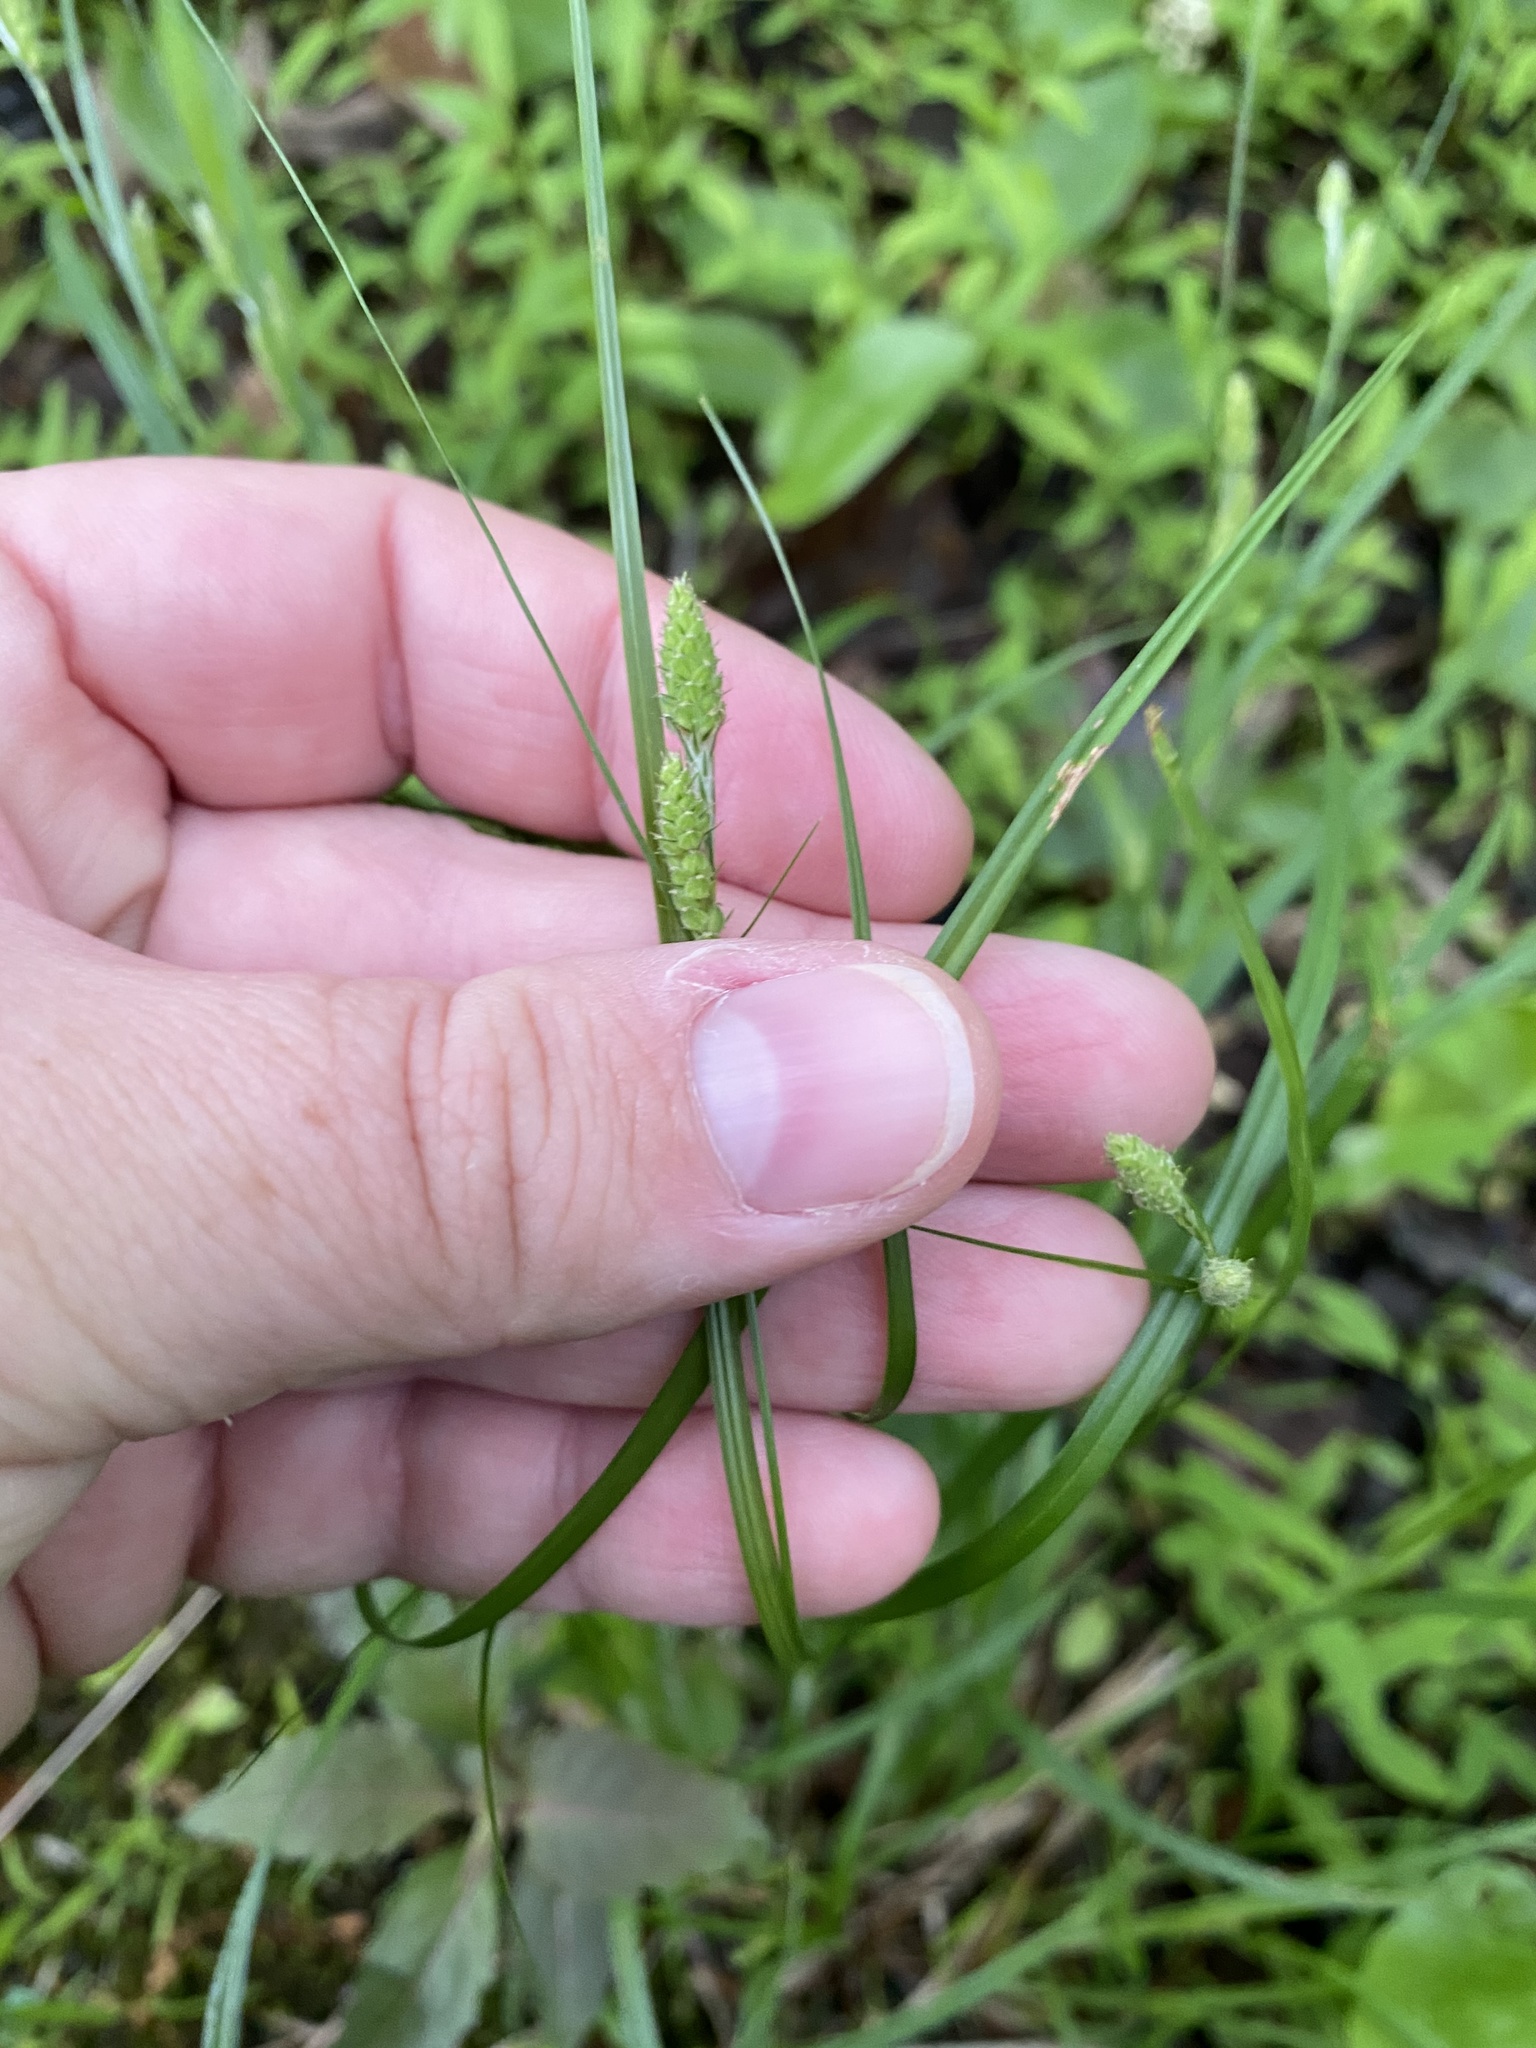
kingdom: Plantae
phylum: Tracheophyta
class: Liliopsida
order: Poales
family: Cyperaceae
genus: Carex
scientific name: Carex swanii
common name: Downy green sedge
